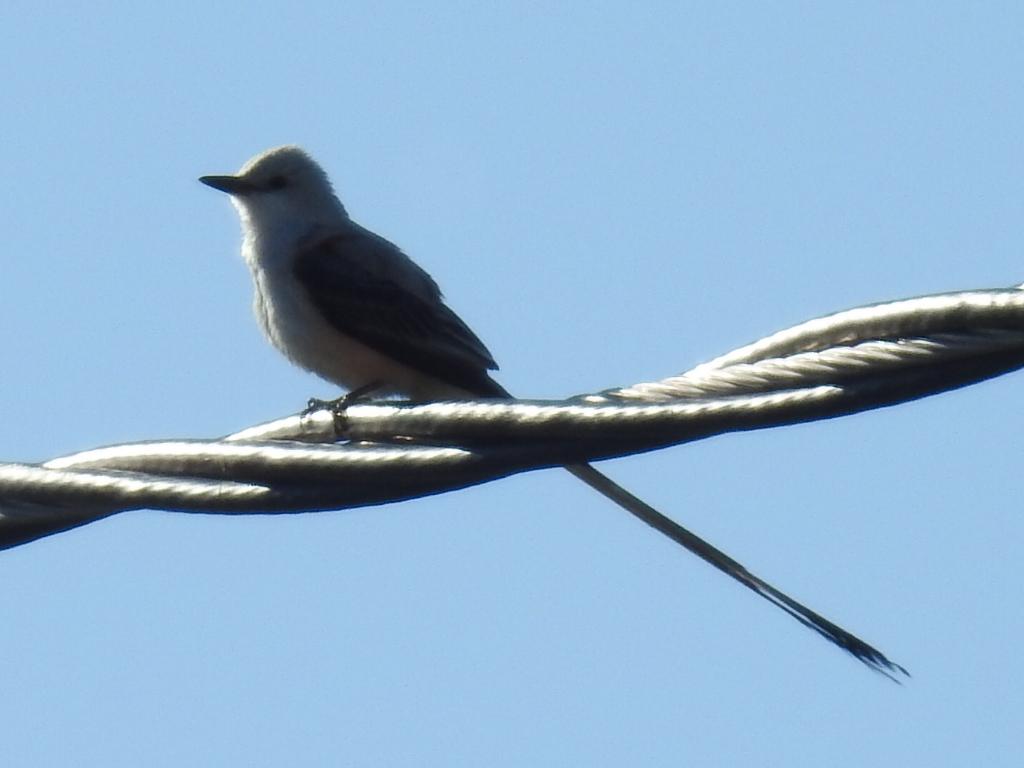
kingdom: Animalia
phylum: Chordata
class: Aves
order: Passeriformes
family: Tyrannidae
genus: Tyrannus
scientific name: Tyrannus forficatus
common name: Scissor-tailed flycatcher
